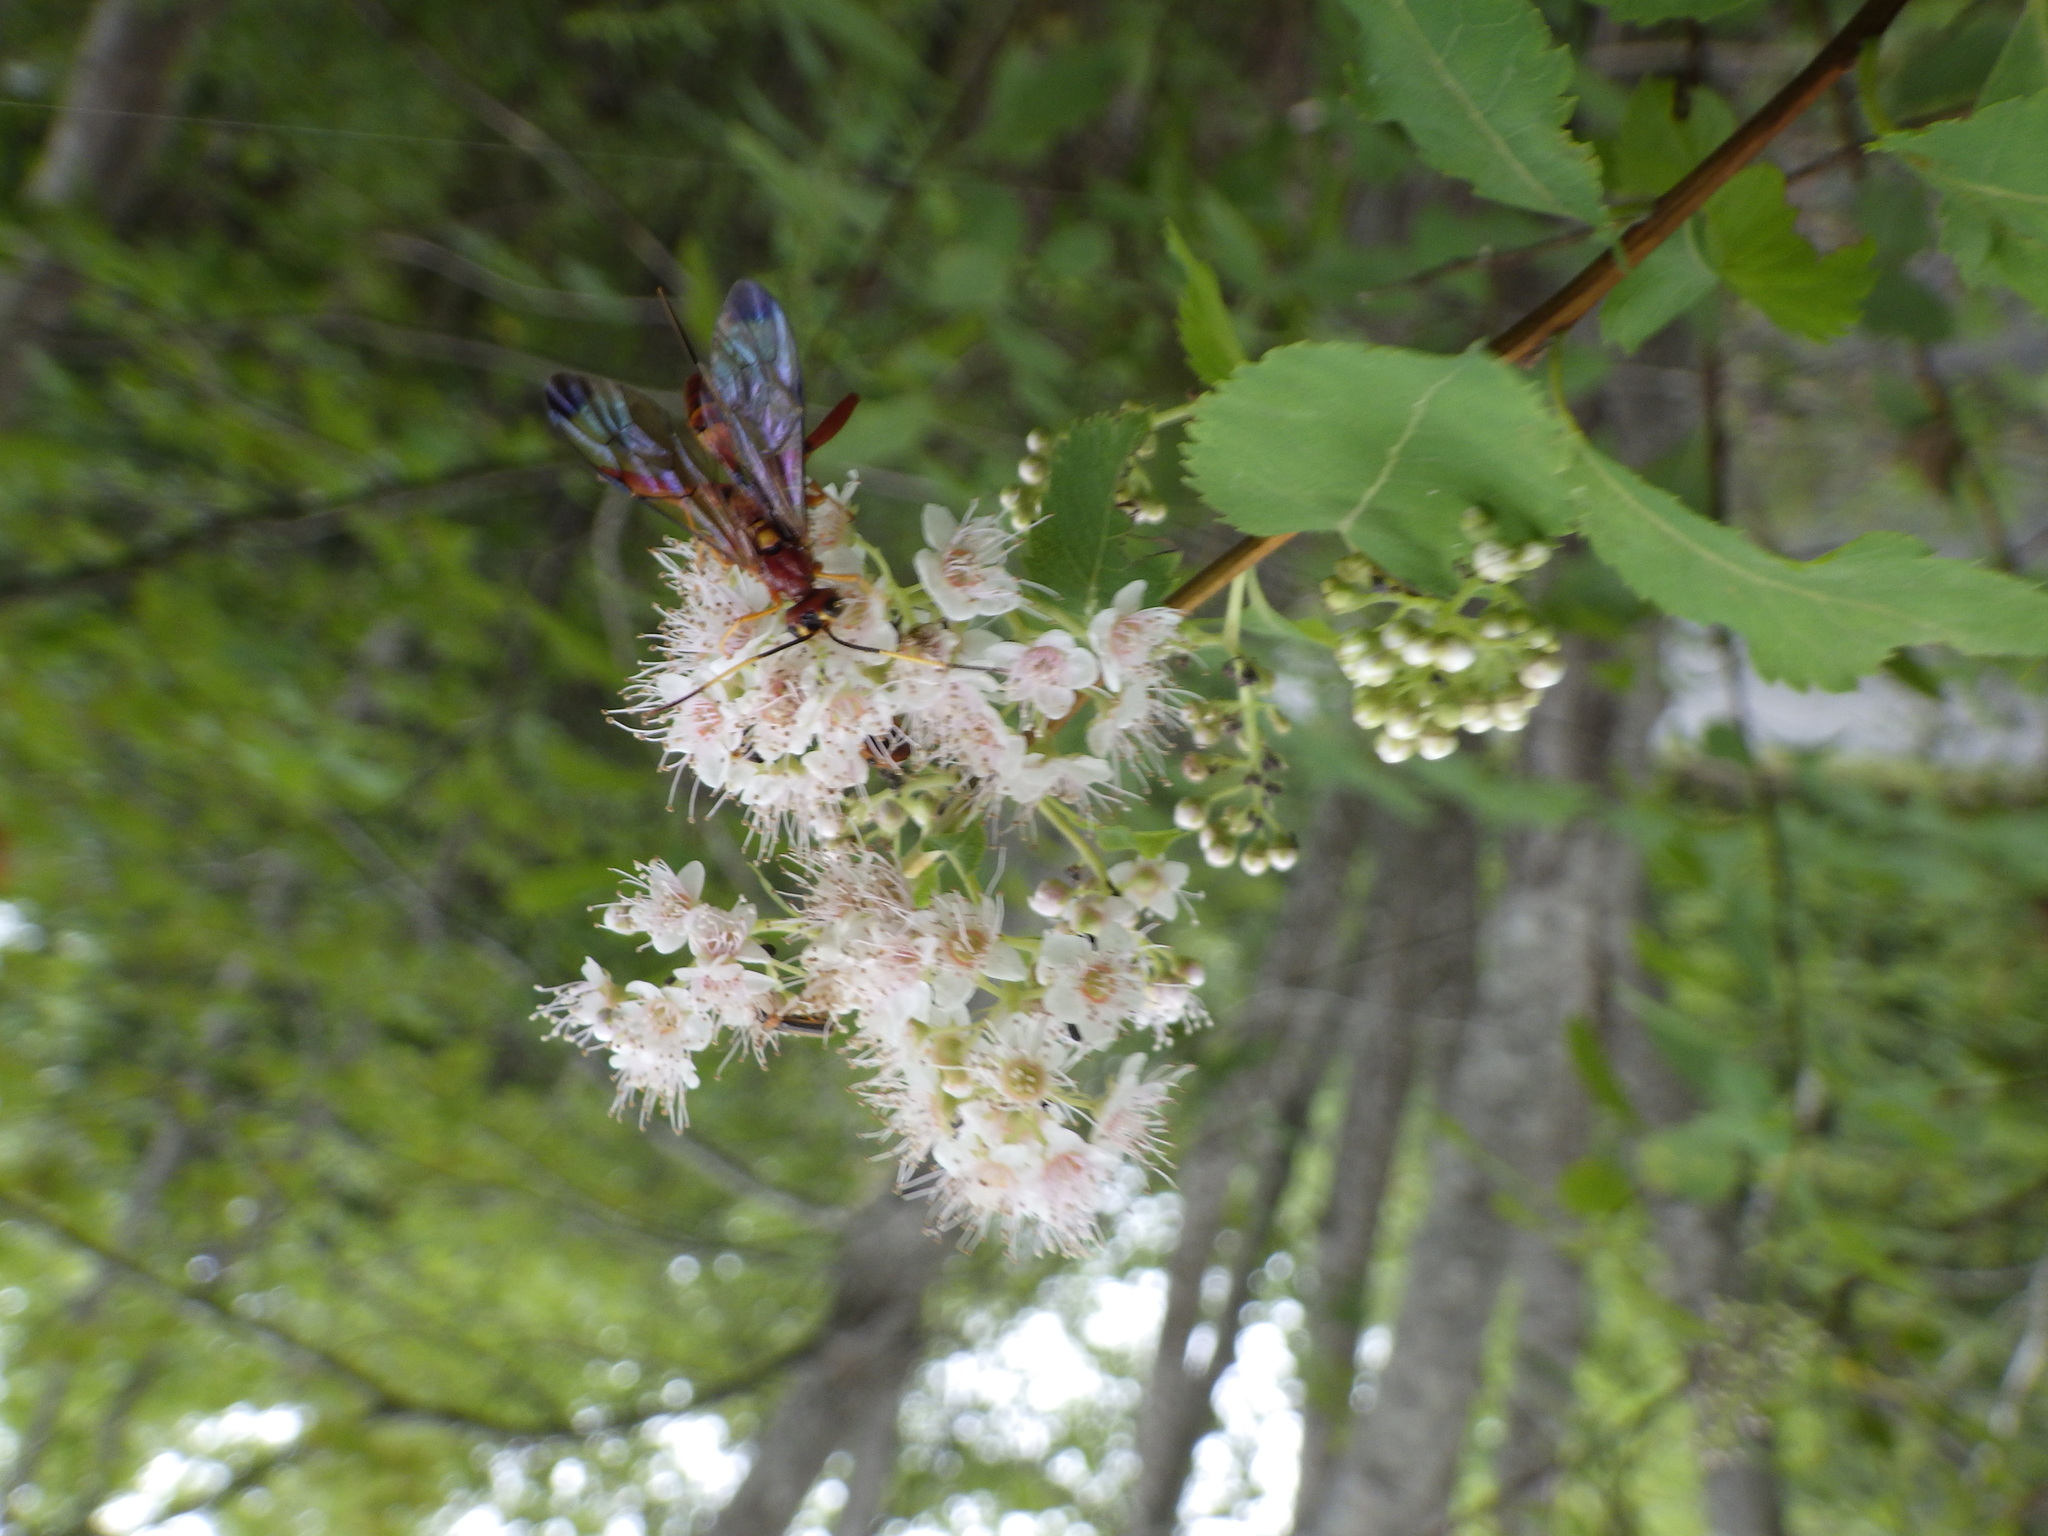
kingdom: Animalia
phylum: Arthropoda
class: Insecta
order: Hymenoptera
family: Ichneumonidae
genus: Spilopteron
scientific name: Spilopteron vicinum
